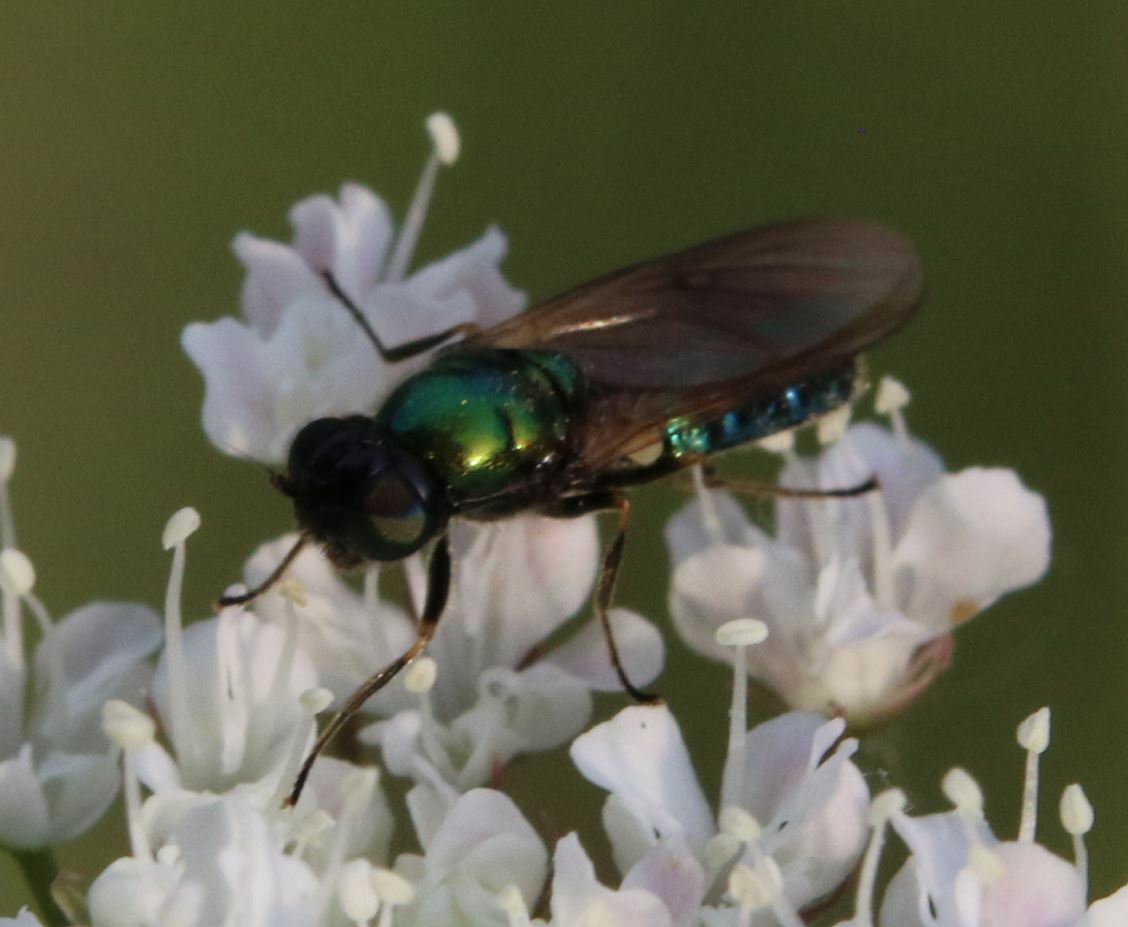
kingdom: Animalia
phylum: Arthropoda
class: Insecta
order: Diptera
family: Stratiomyidae
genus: Chloromyia
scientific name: Chloromyia formosa
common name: Soldier fly
